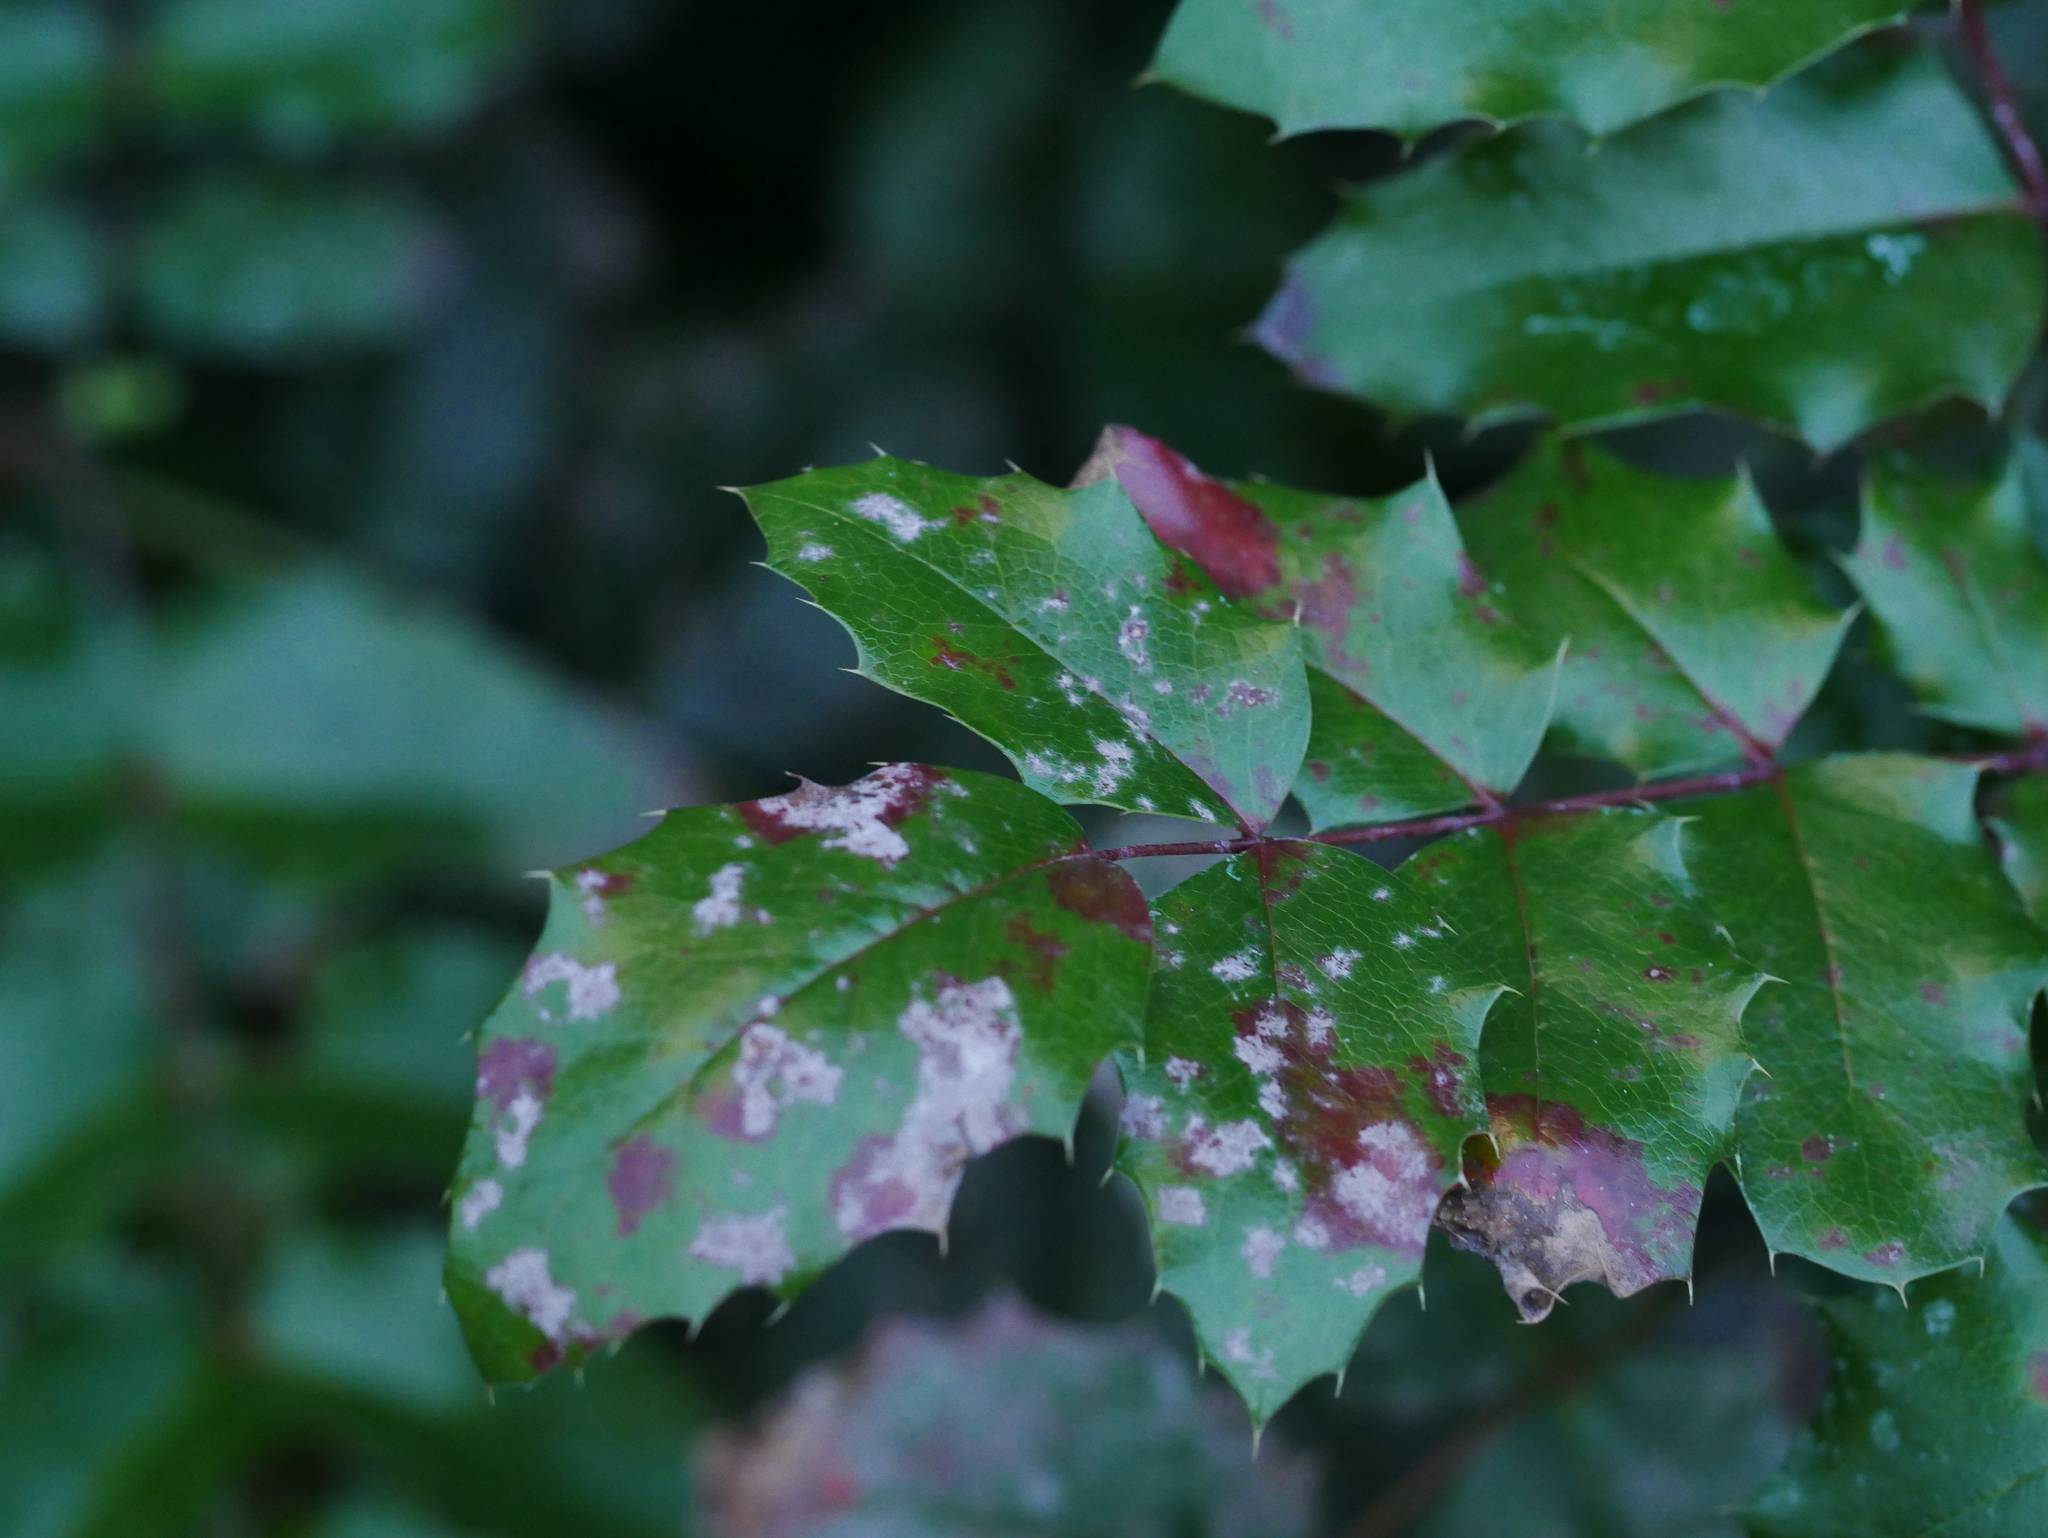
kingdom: Fungi
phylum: Ascomycota
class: Leotiomycetes
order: Helotiales
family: Erysiphaceae
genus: Erysiphe
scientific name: Erysiphe berberidis
